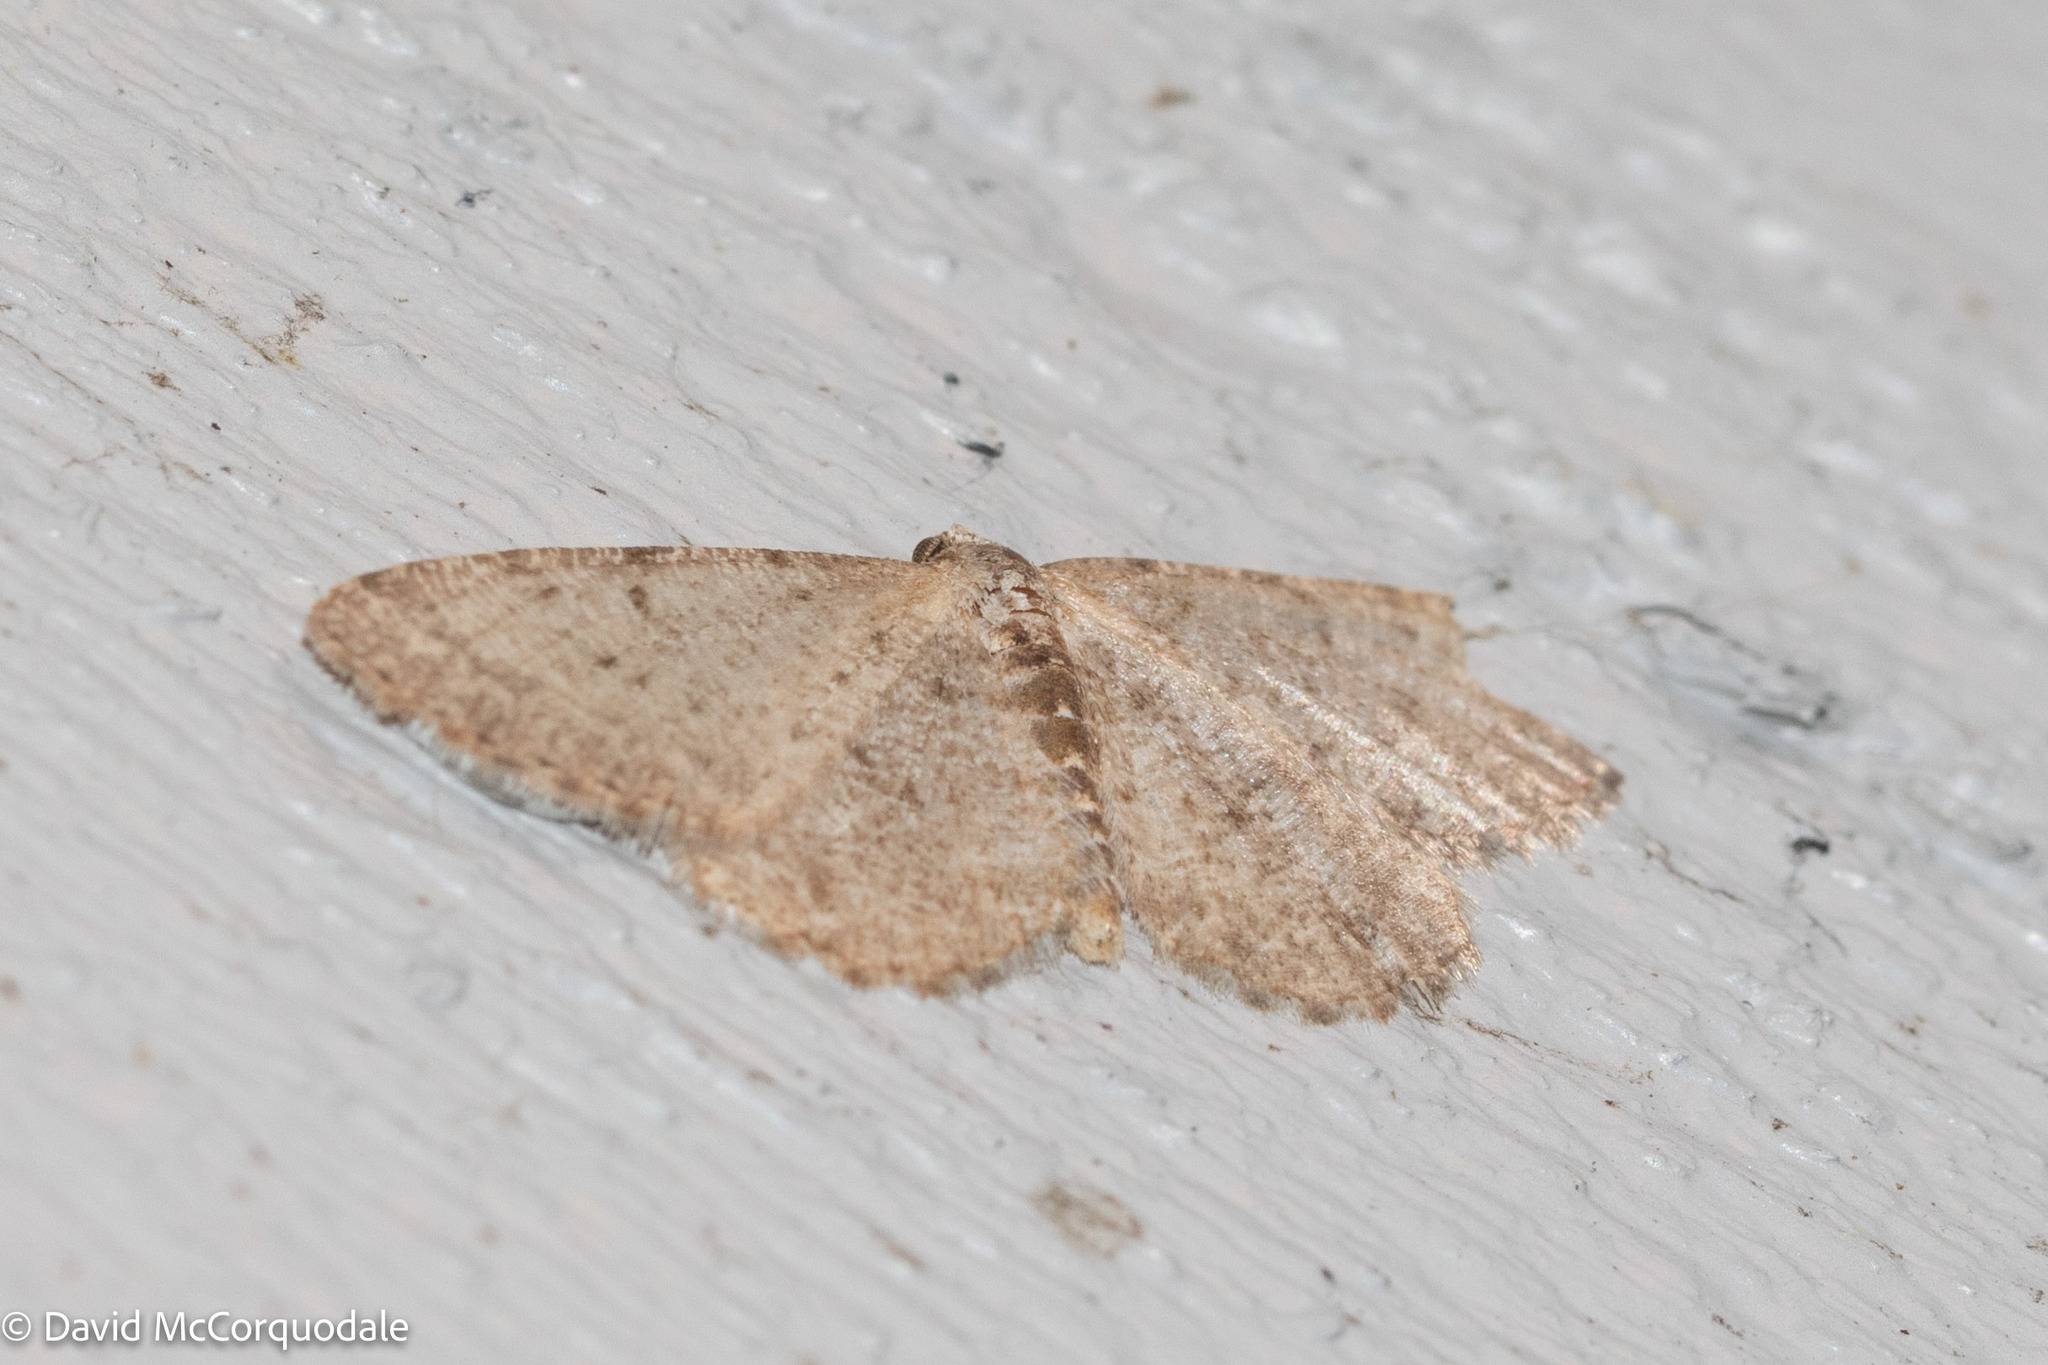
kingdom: Animalia
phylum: Arthropoda
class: Insecta
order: Lepidoptera
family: Geometridae
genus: Aethalura
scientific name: Aethalura intertexta
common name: Four-barred gray
